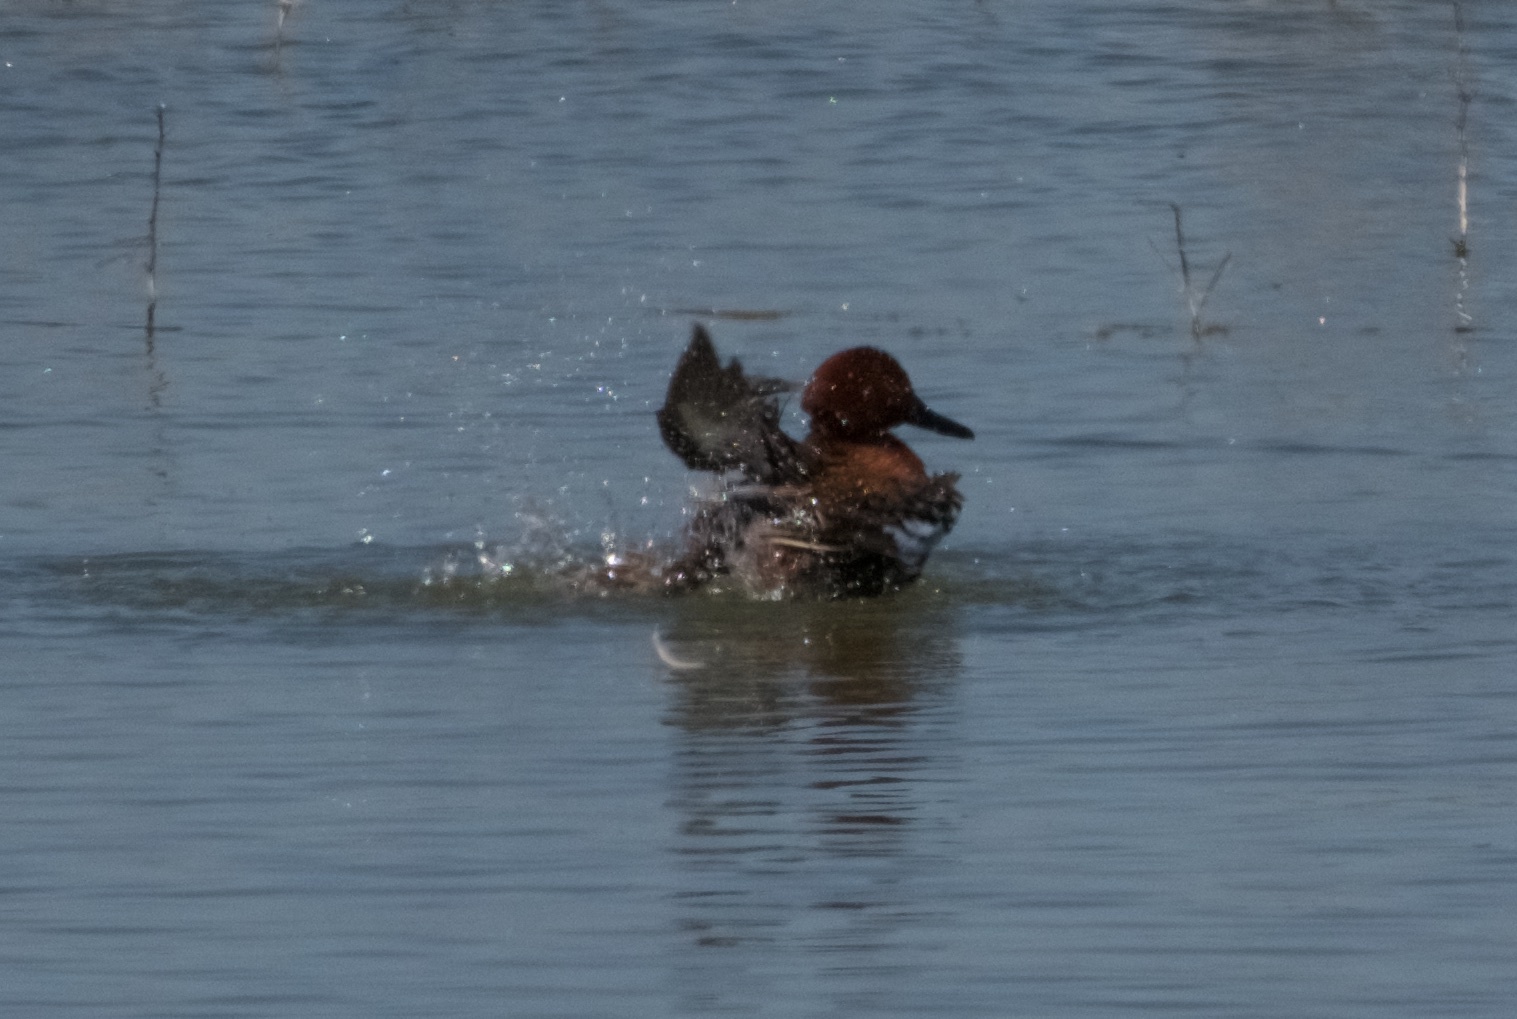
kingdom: Animalia
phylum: Chordata
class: Aves
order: Anseriformes
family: Anatidae
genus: Spatula
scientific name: Spatula cyanoptera
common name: Cinnamon teal
